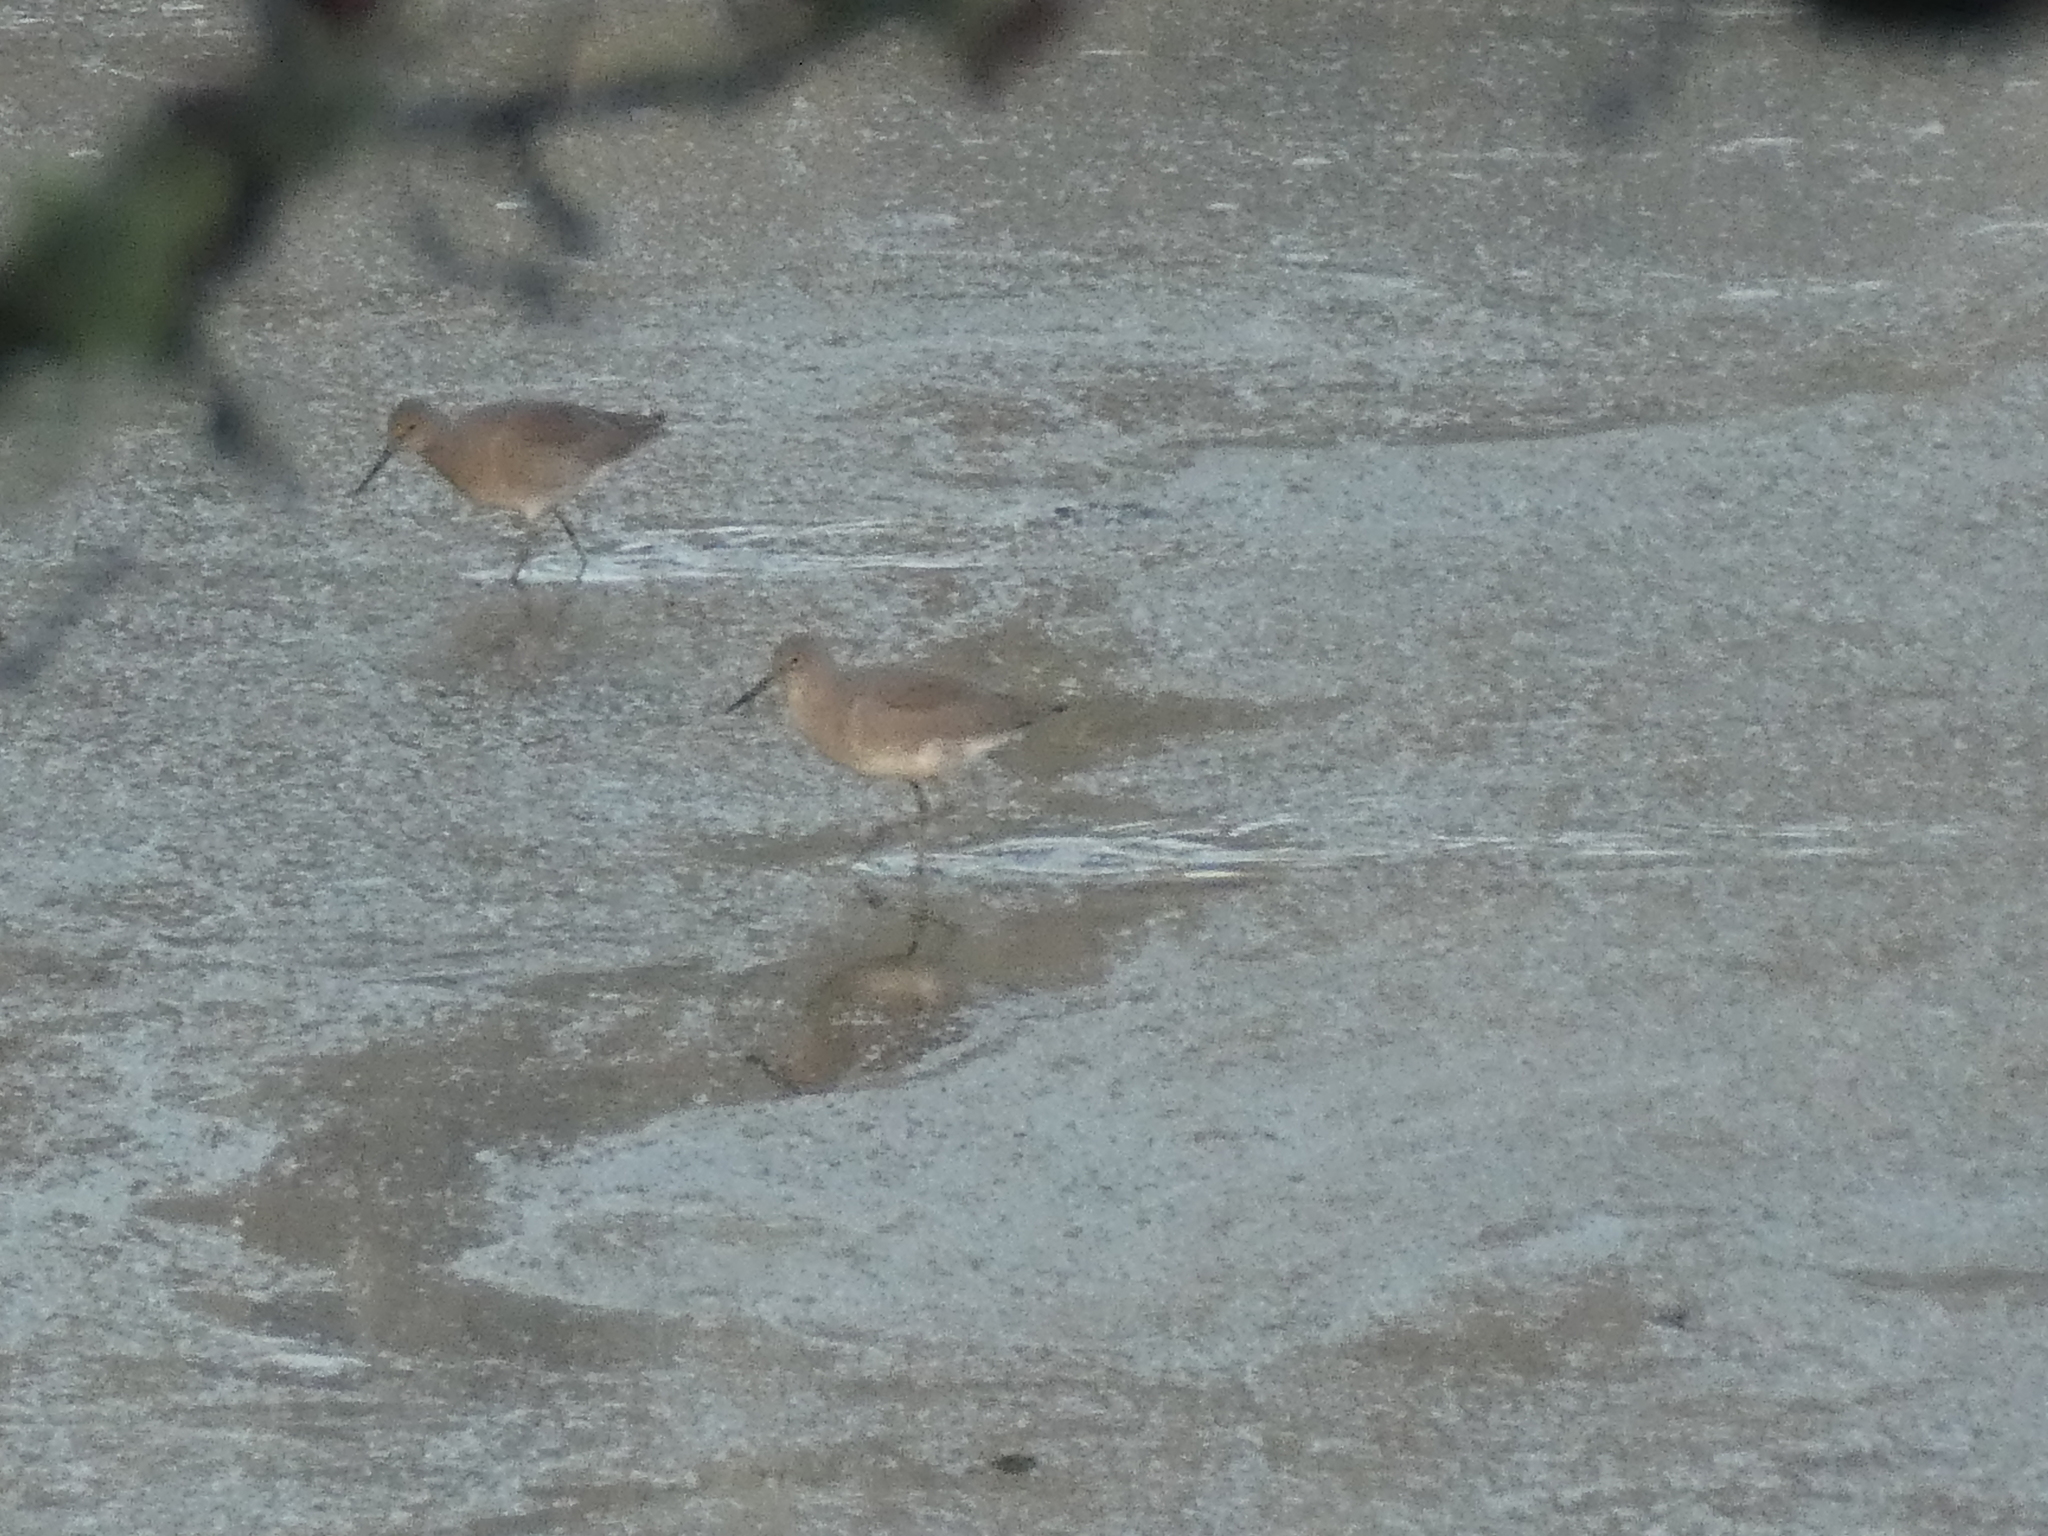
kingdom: Animalia
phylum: Chordata
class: Aves
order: Charadriiformes
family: Scolopacidae
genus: Tringa
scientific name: Tringa semipalmata
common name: Willet
